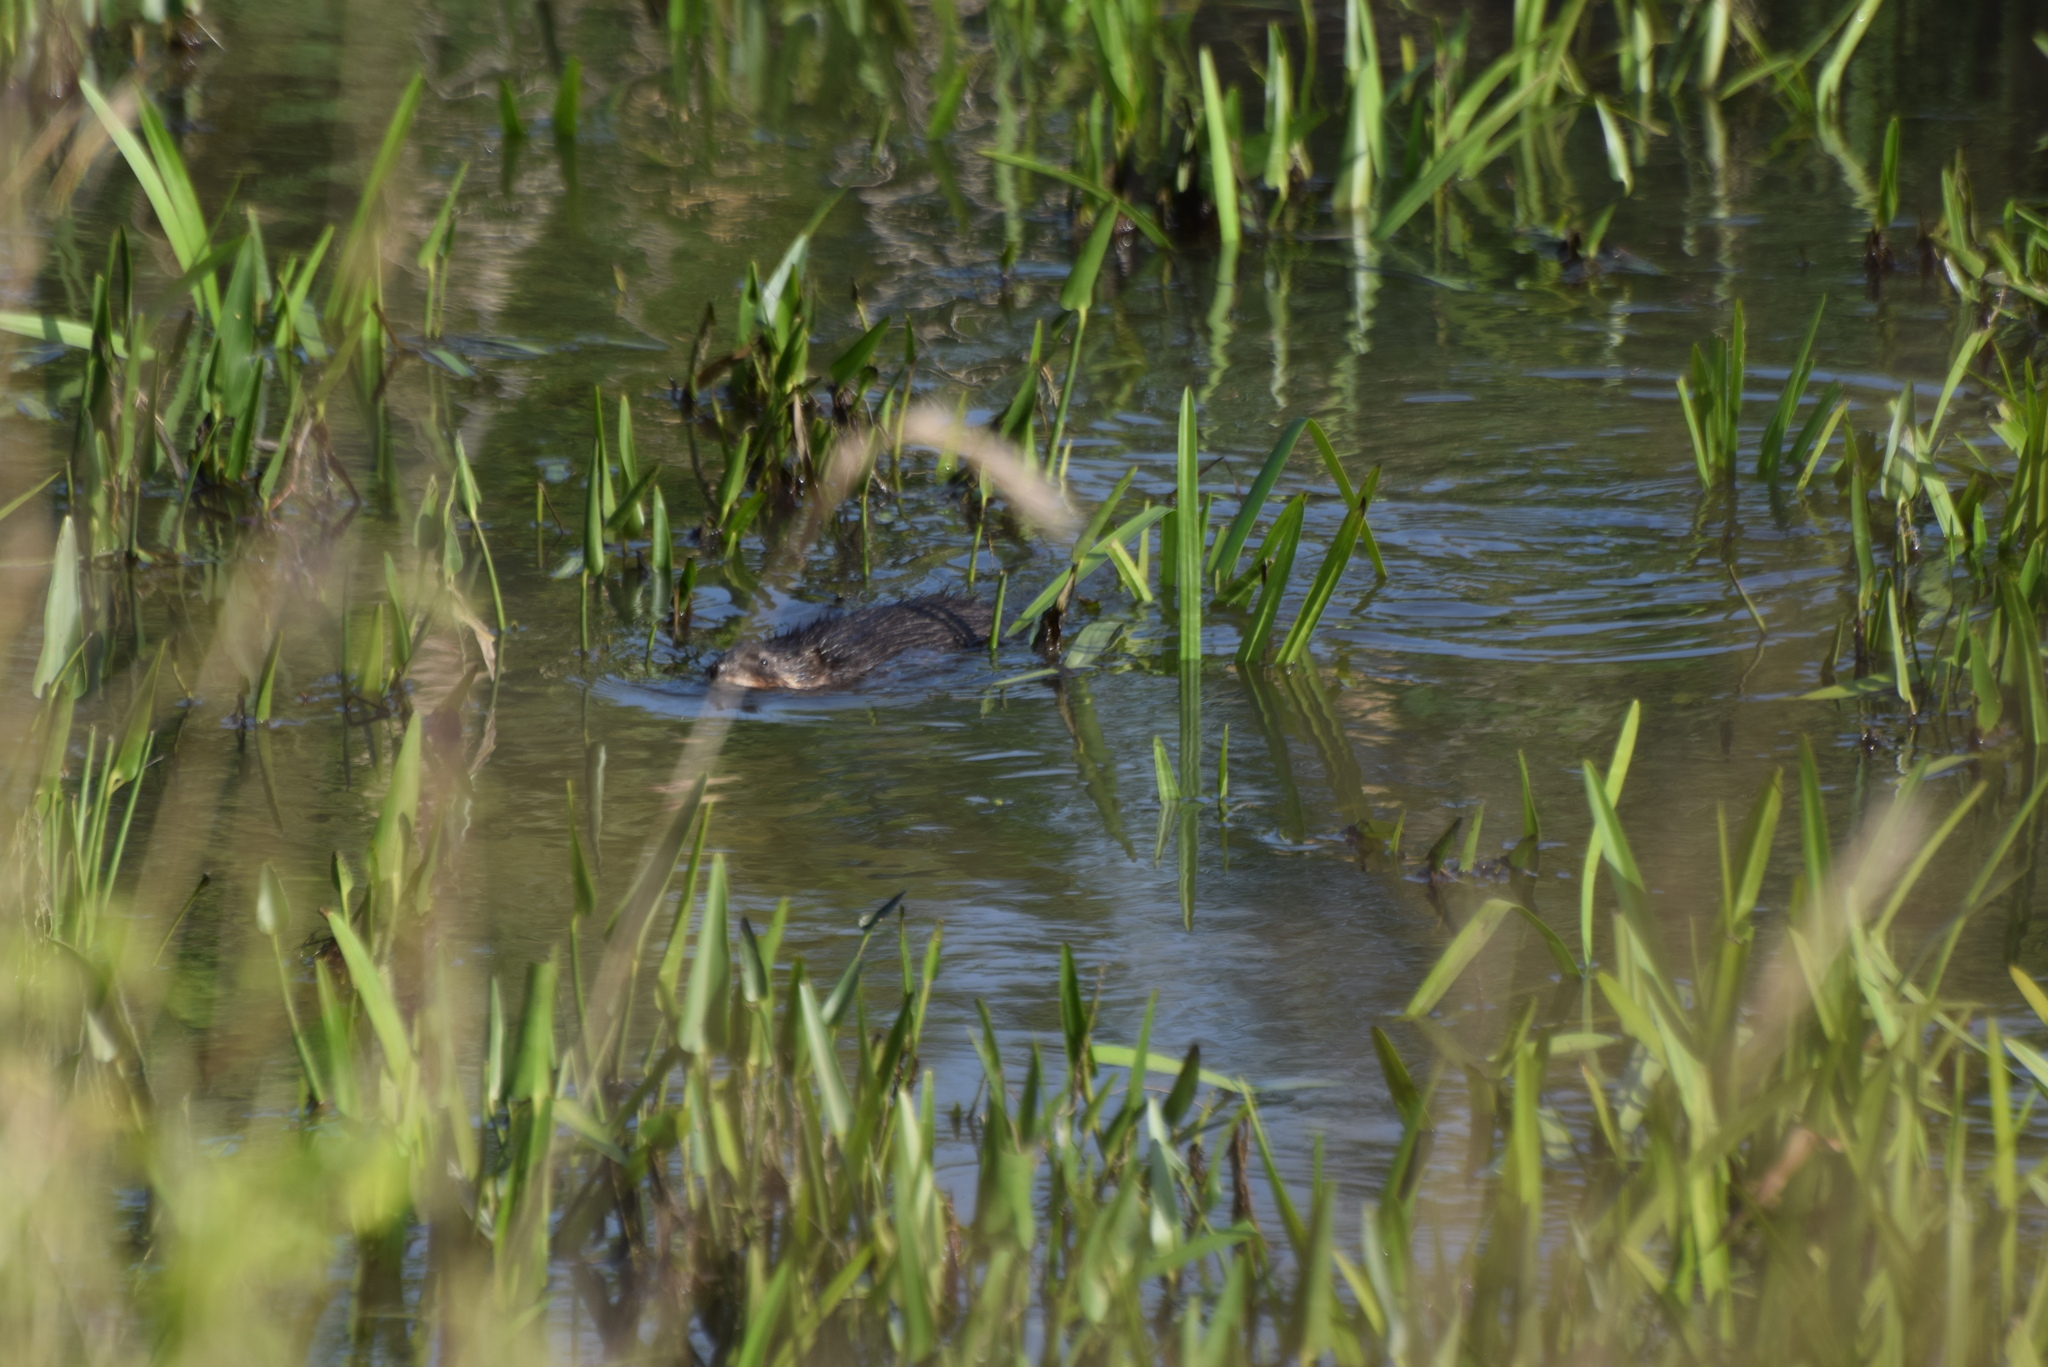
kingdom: Animalia
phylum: Chordata
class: Mammalia
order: Rodentia
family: Cricetidae
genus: Ondatra
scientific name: Ondatra zibethicus
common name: Muskrat
